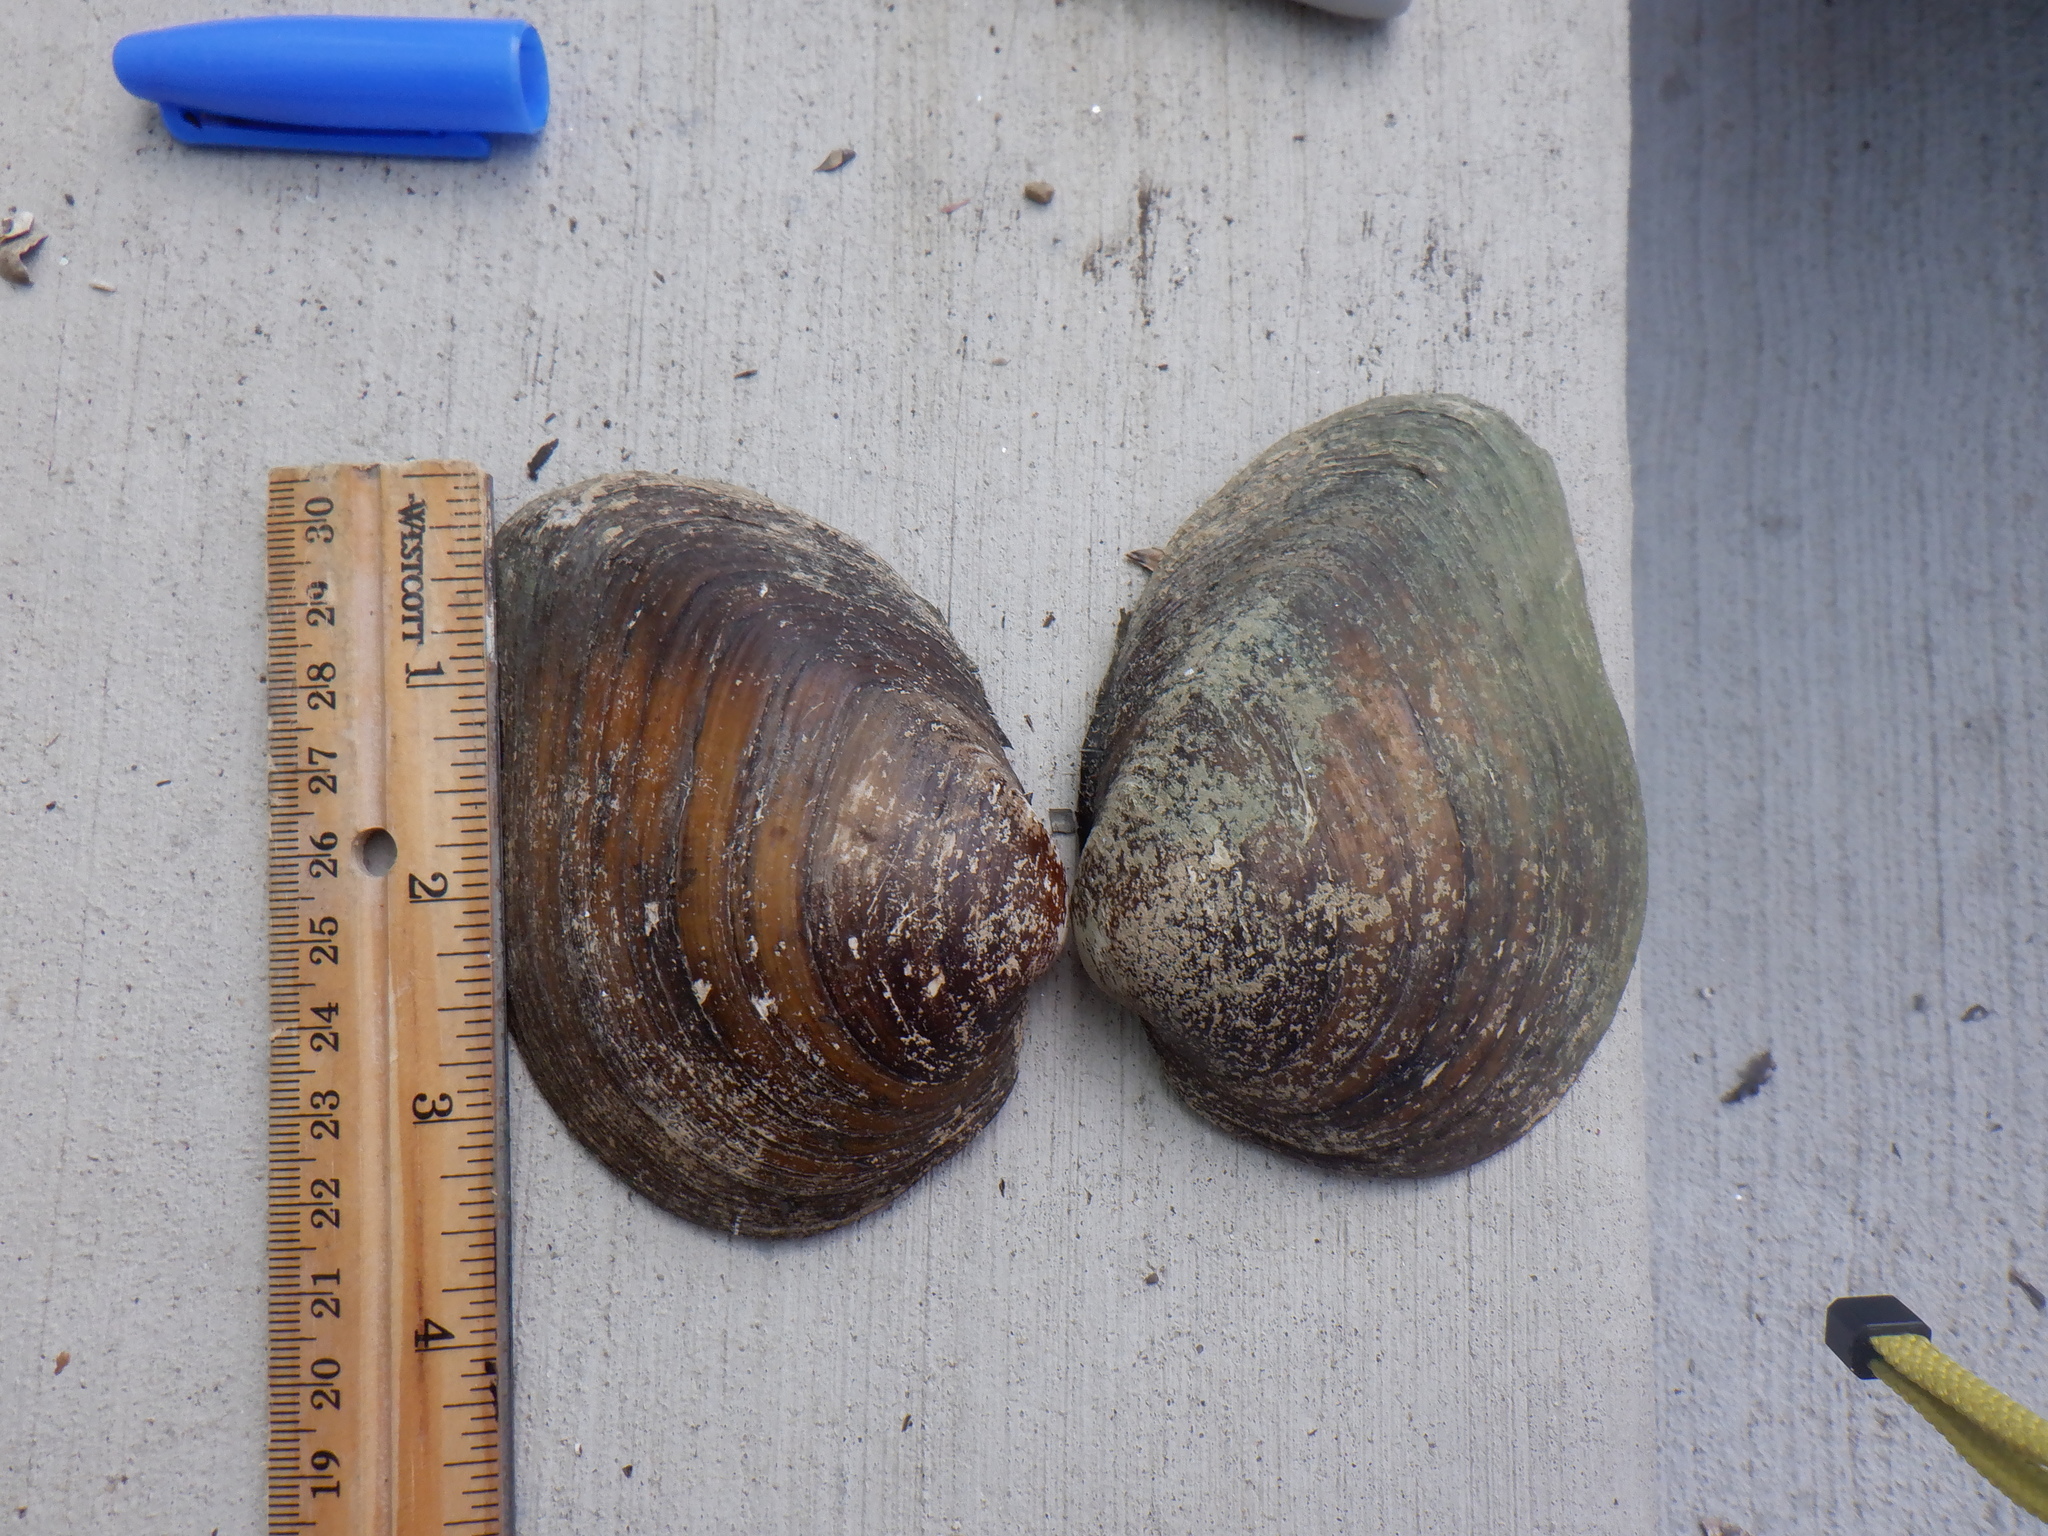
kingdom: Animalia
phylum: Mollusca
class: Bivalvia
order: Unionida
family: Unionidae
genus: Fusconaia
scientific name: Fusconaia flava
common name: Wabash pigtoe
